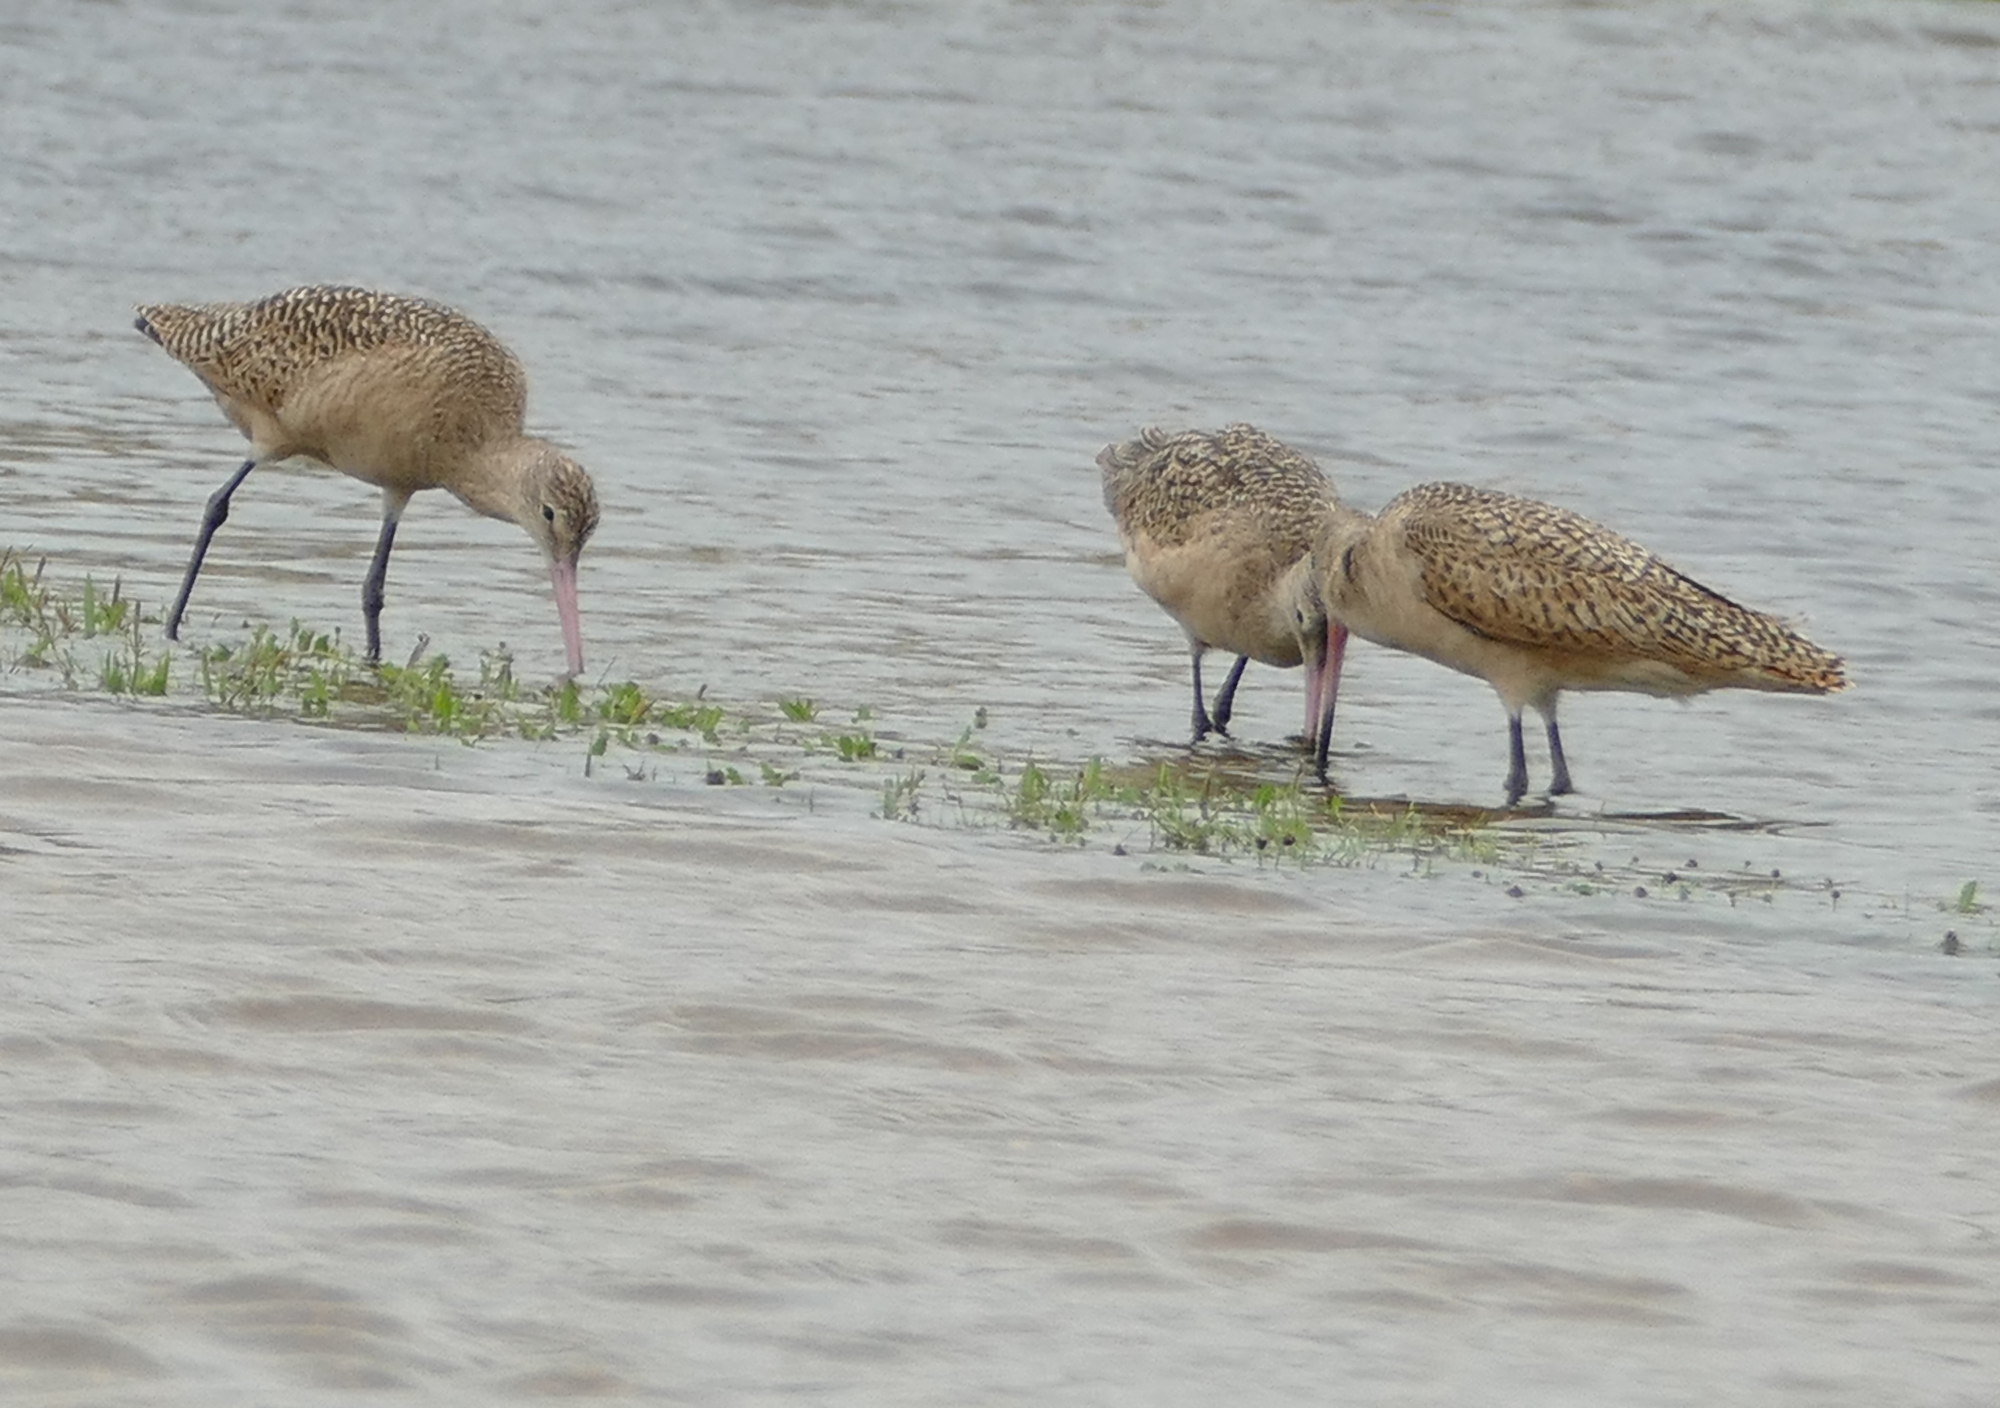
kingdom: Animalia
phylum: Chordata
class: Aves
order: Charadriiformes
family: Scolopacidae
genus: Limosa
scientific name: Limosa fedoa
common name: Marbled godwit
